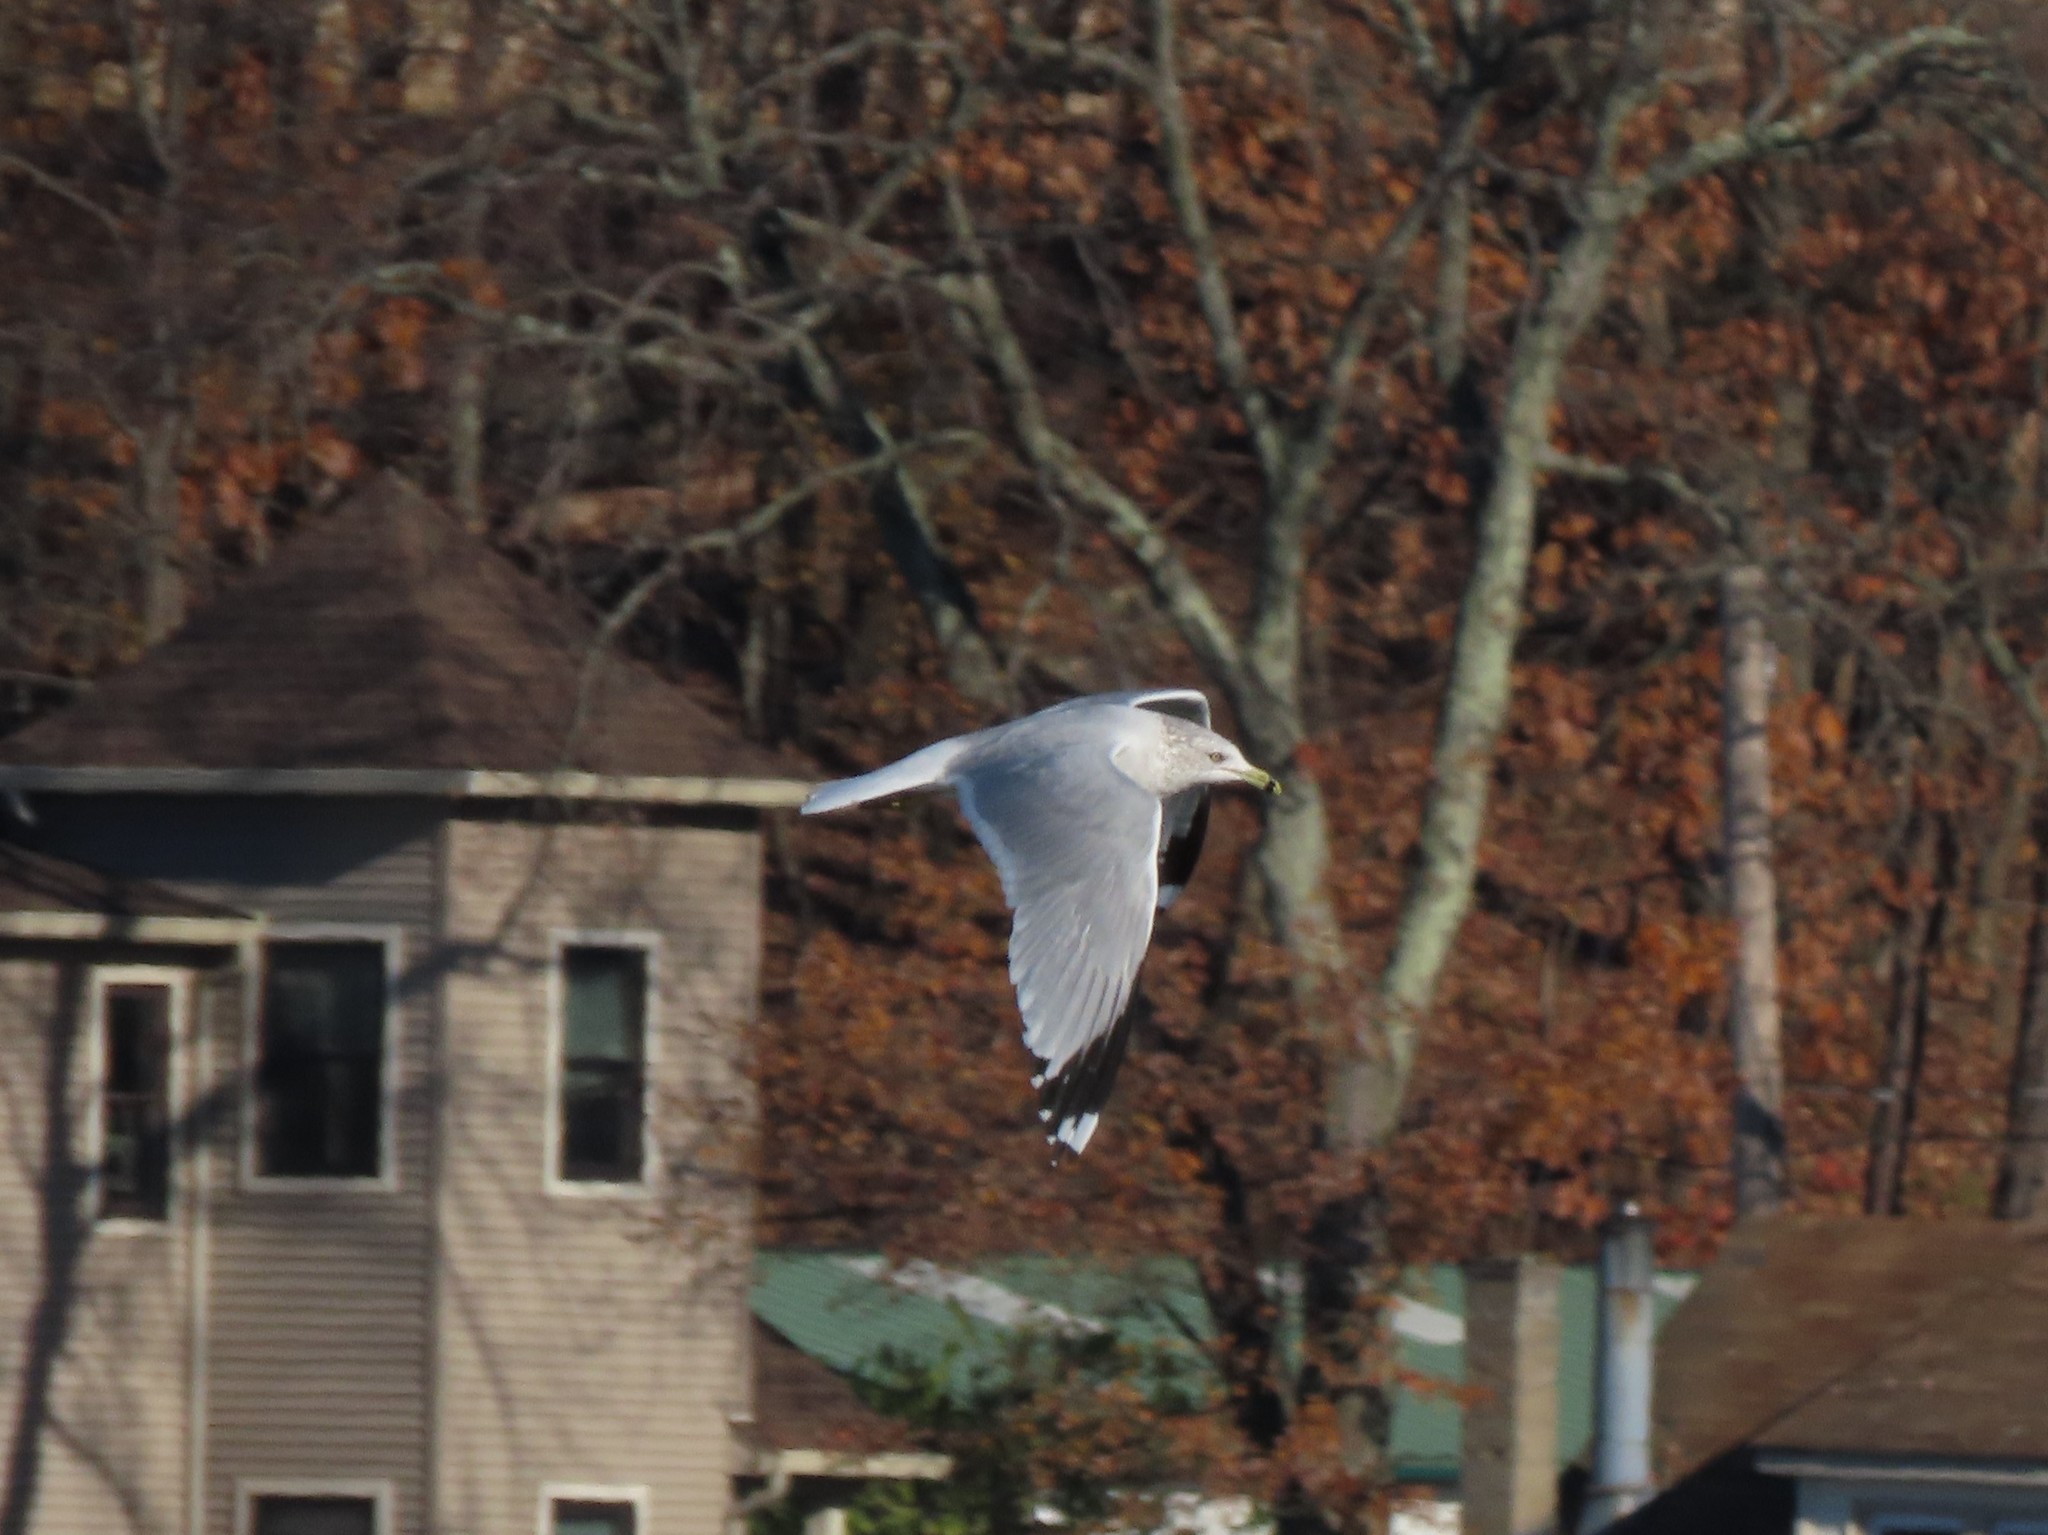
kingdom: Animalia
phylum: Chordata
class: Aves
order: Charadriiformes
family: Laridae
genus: Larus
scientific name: Larus delawarensis
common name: Ring-billed gull
